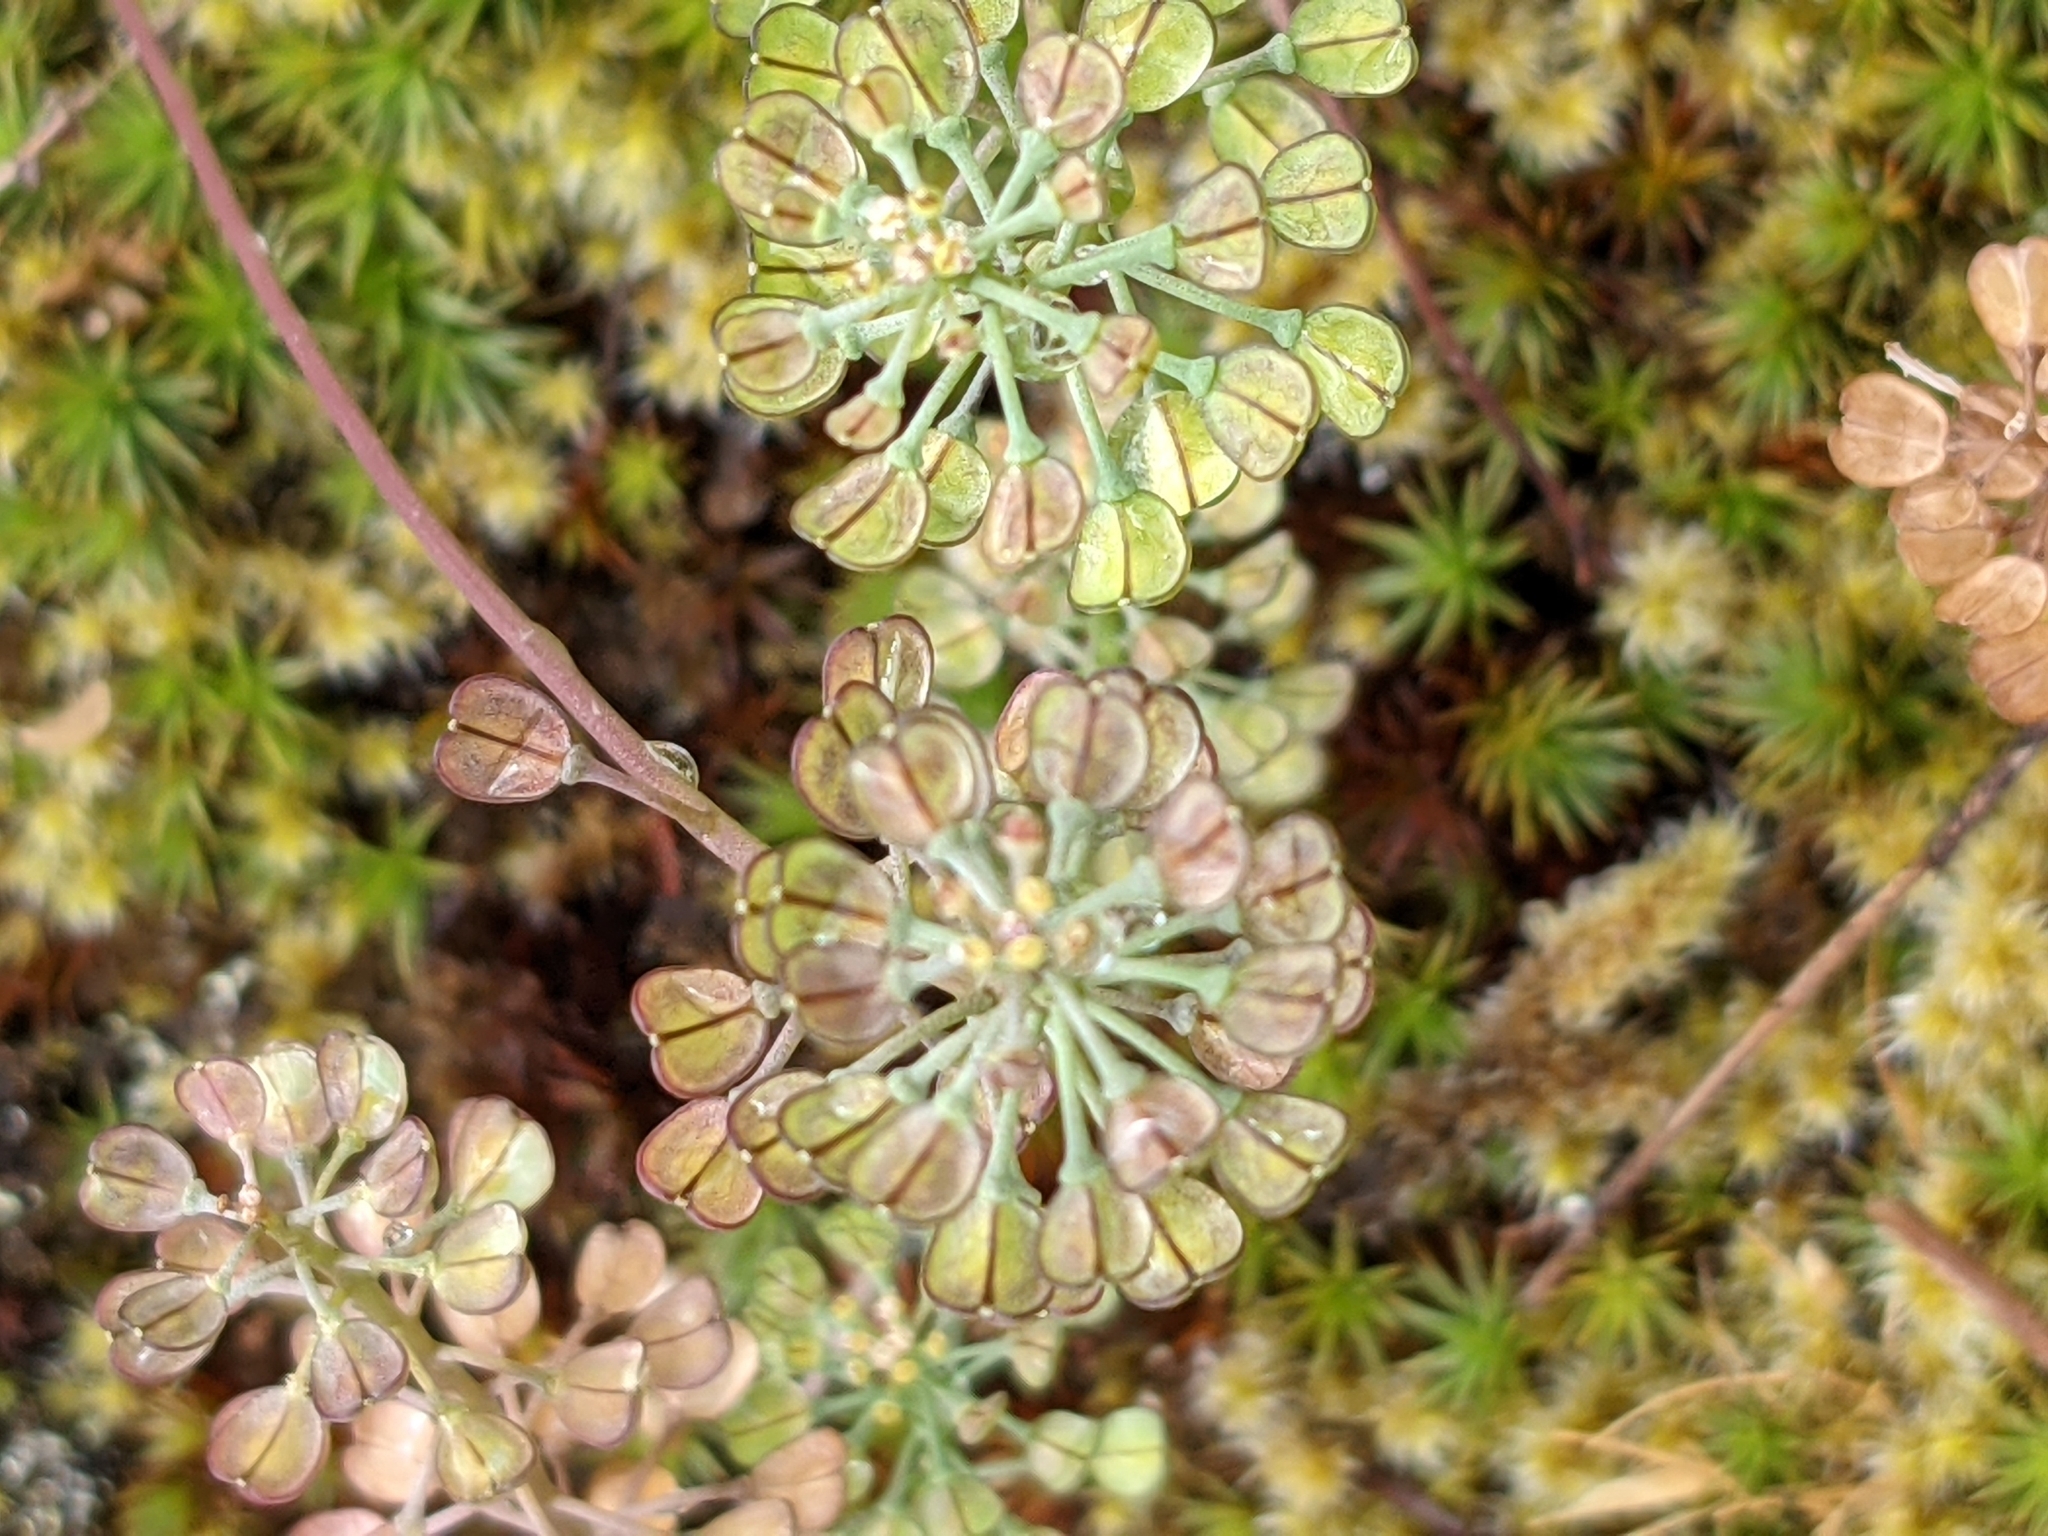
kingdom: Plantae
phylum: Tracheophyta
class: Magnoliopsida
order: Brassicales
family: Brassicaceae
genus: Teesdalia
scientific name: Teesdalia nudicaulis
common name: Shepherd's cress
